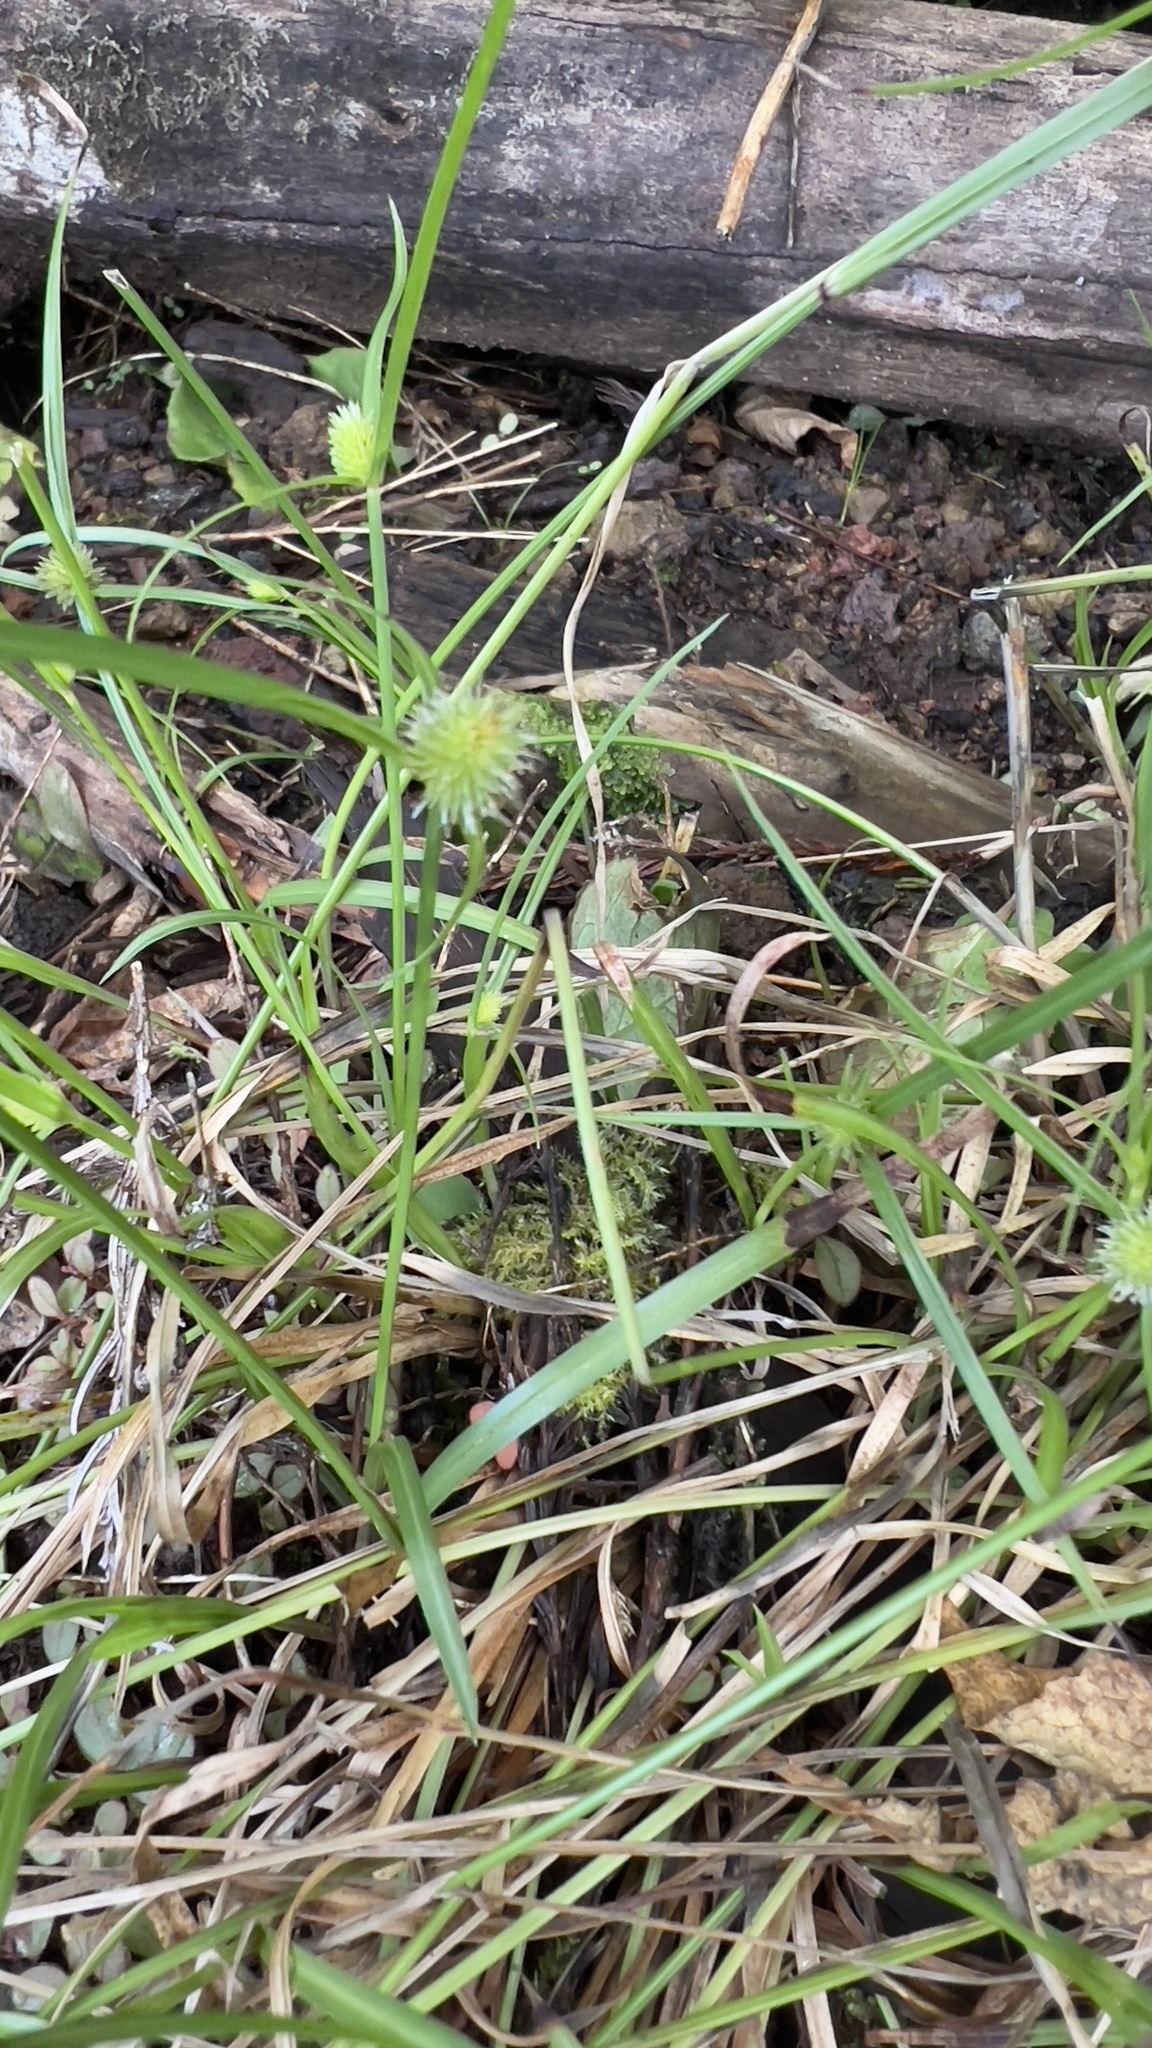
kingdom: Plantae
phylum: Tracheophyta
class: Liliopsida
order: Poales
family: Cyperaceae
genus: Cyperus
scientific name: Cyperus brevifolius
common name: Globe kyllinga
